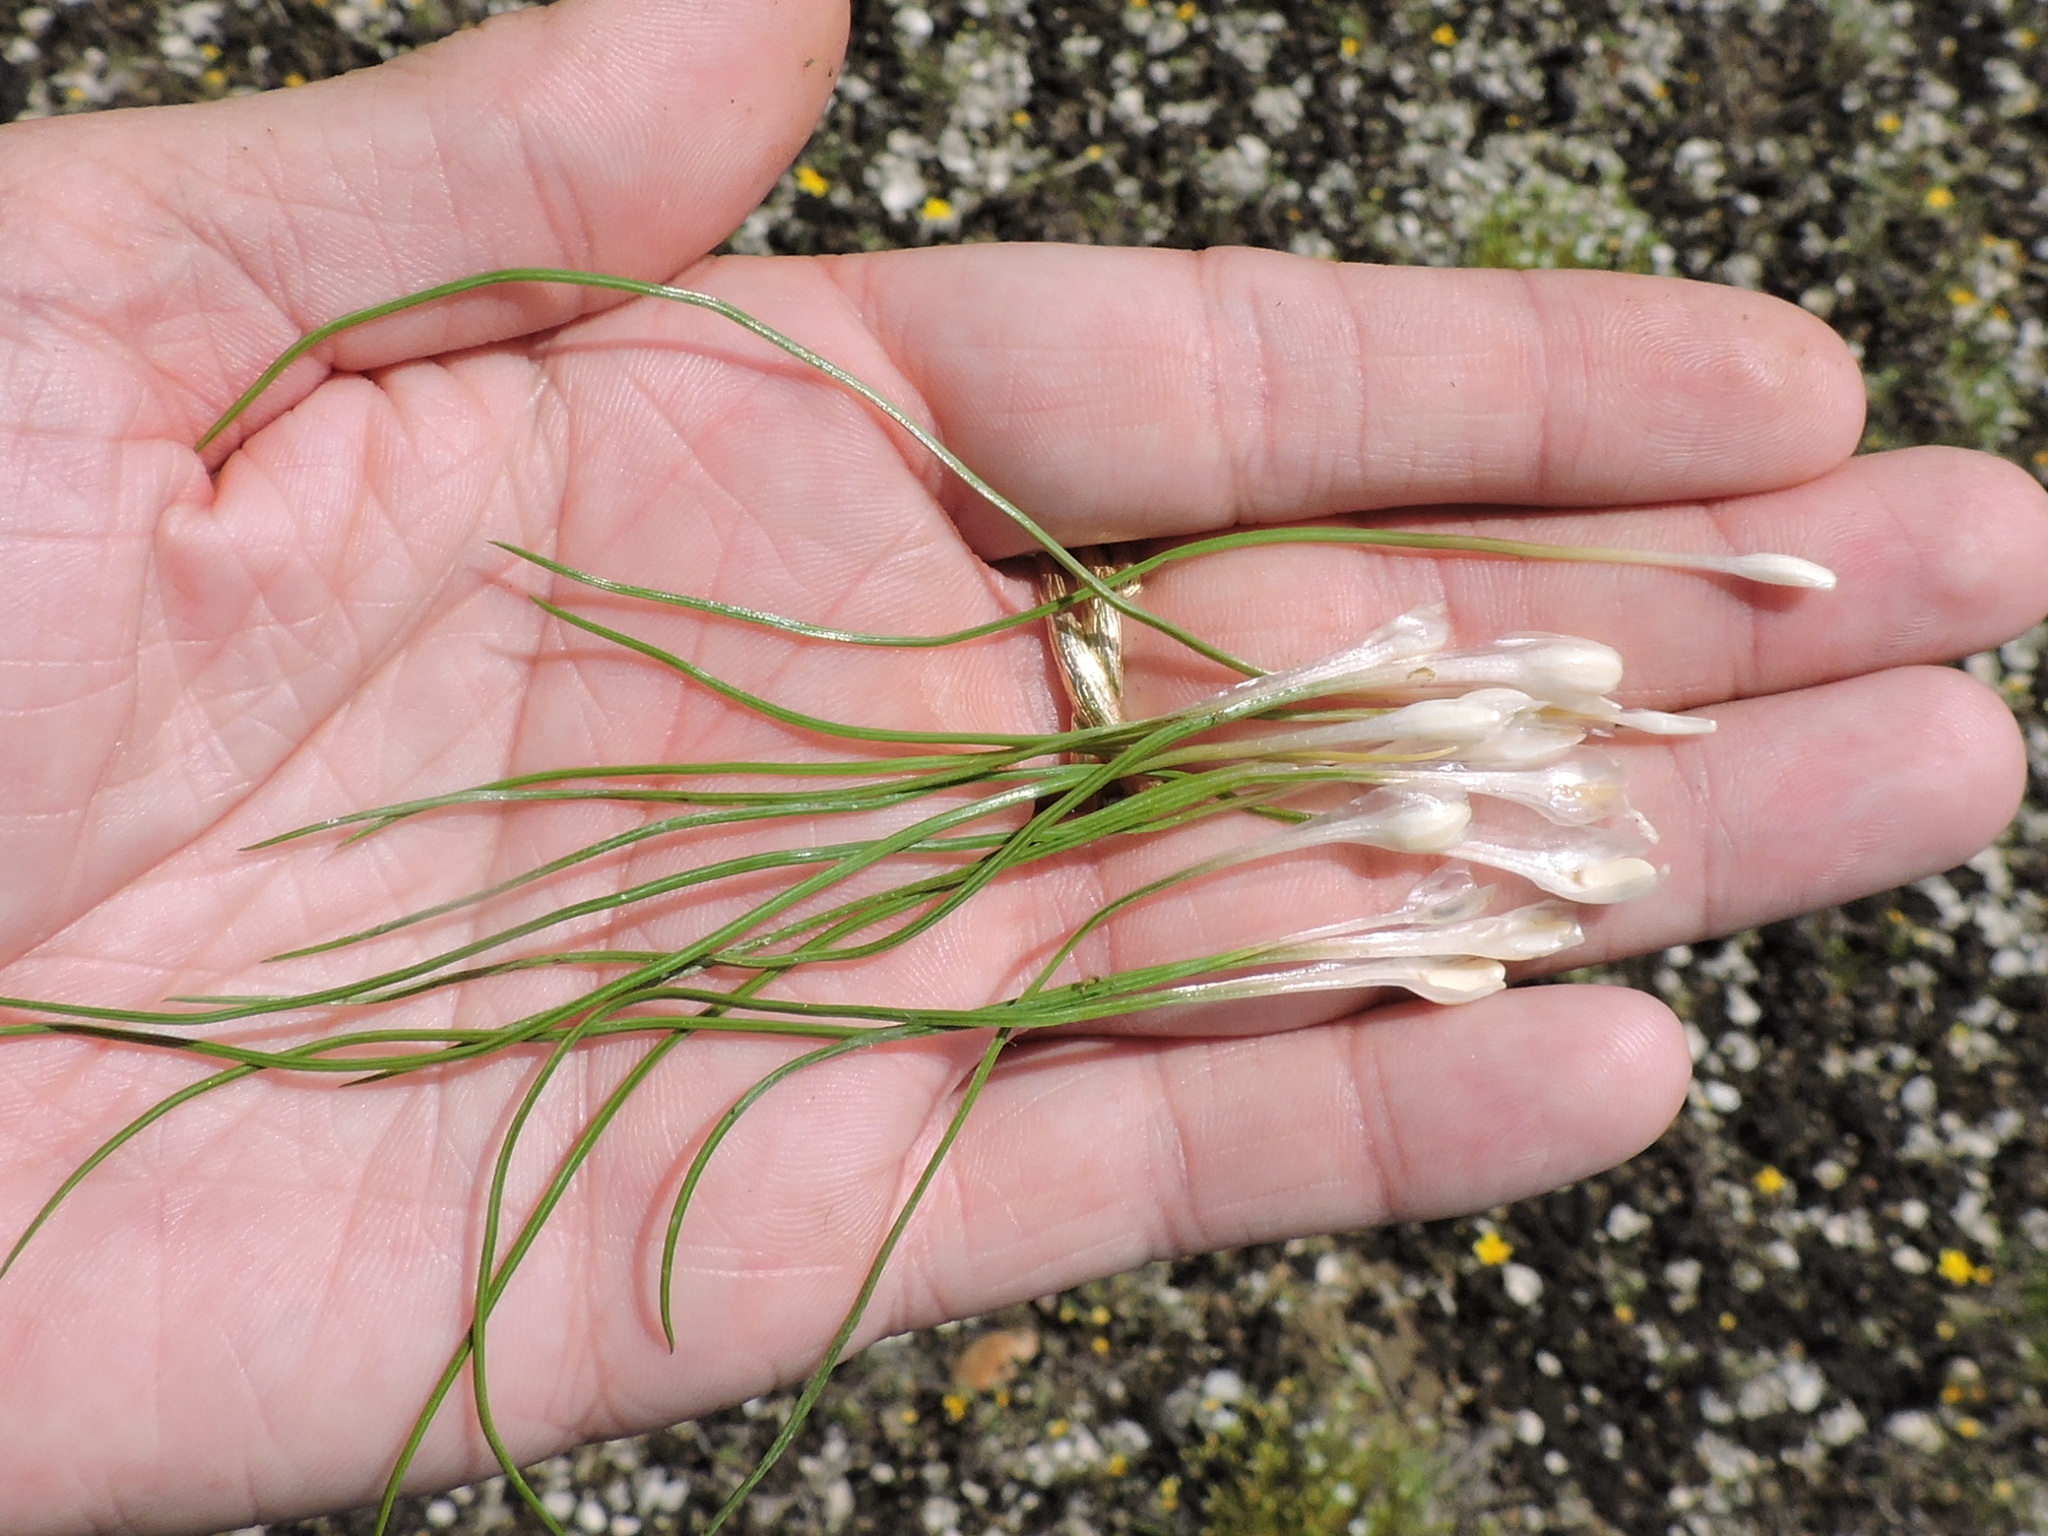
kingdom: Plantae
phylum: Tracheophyta
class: Lycopodiopsida
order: Isoetales
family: Isoetaceae
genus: Isoetes
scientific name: Isoetes butleri
